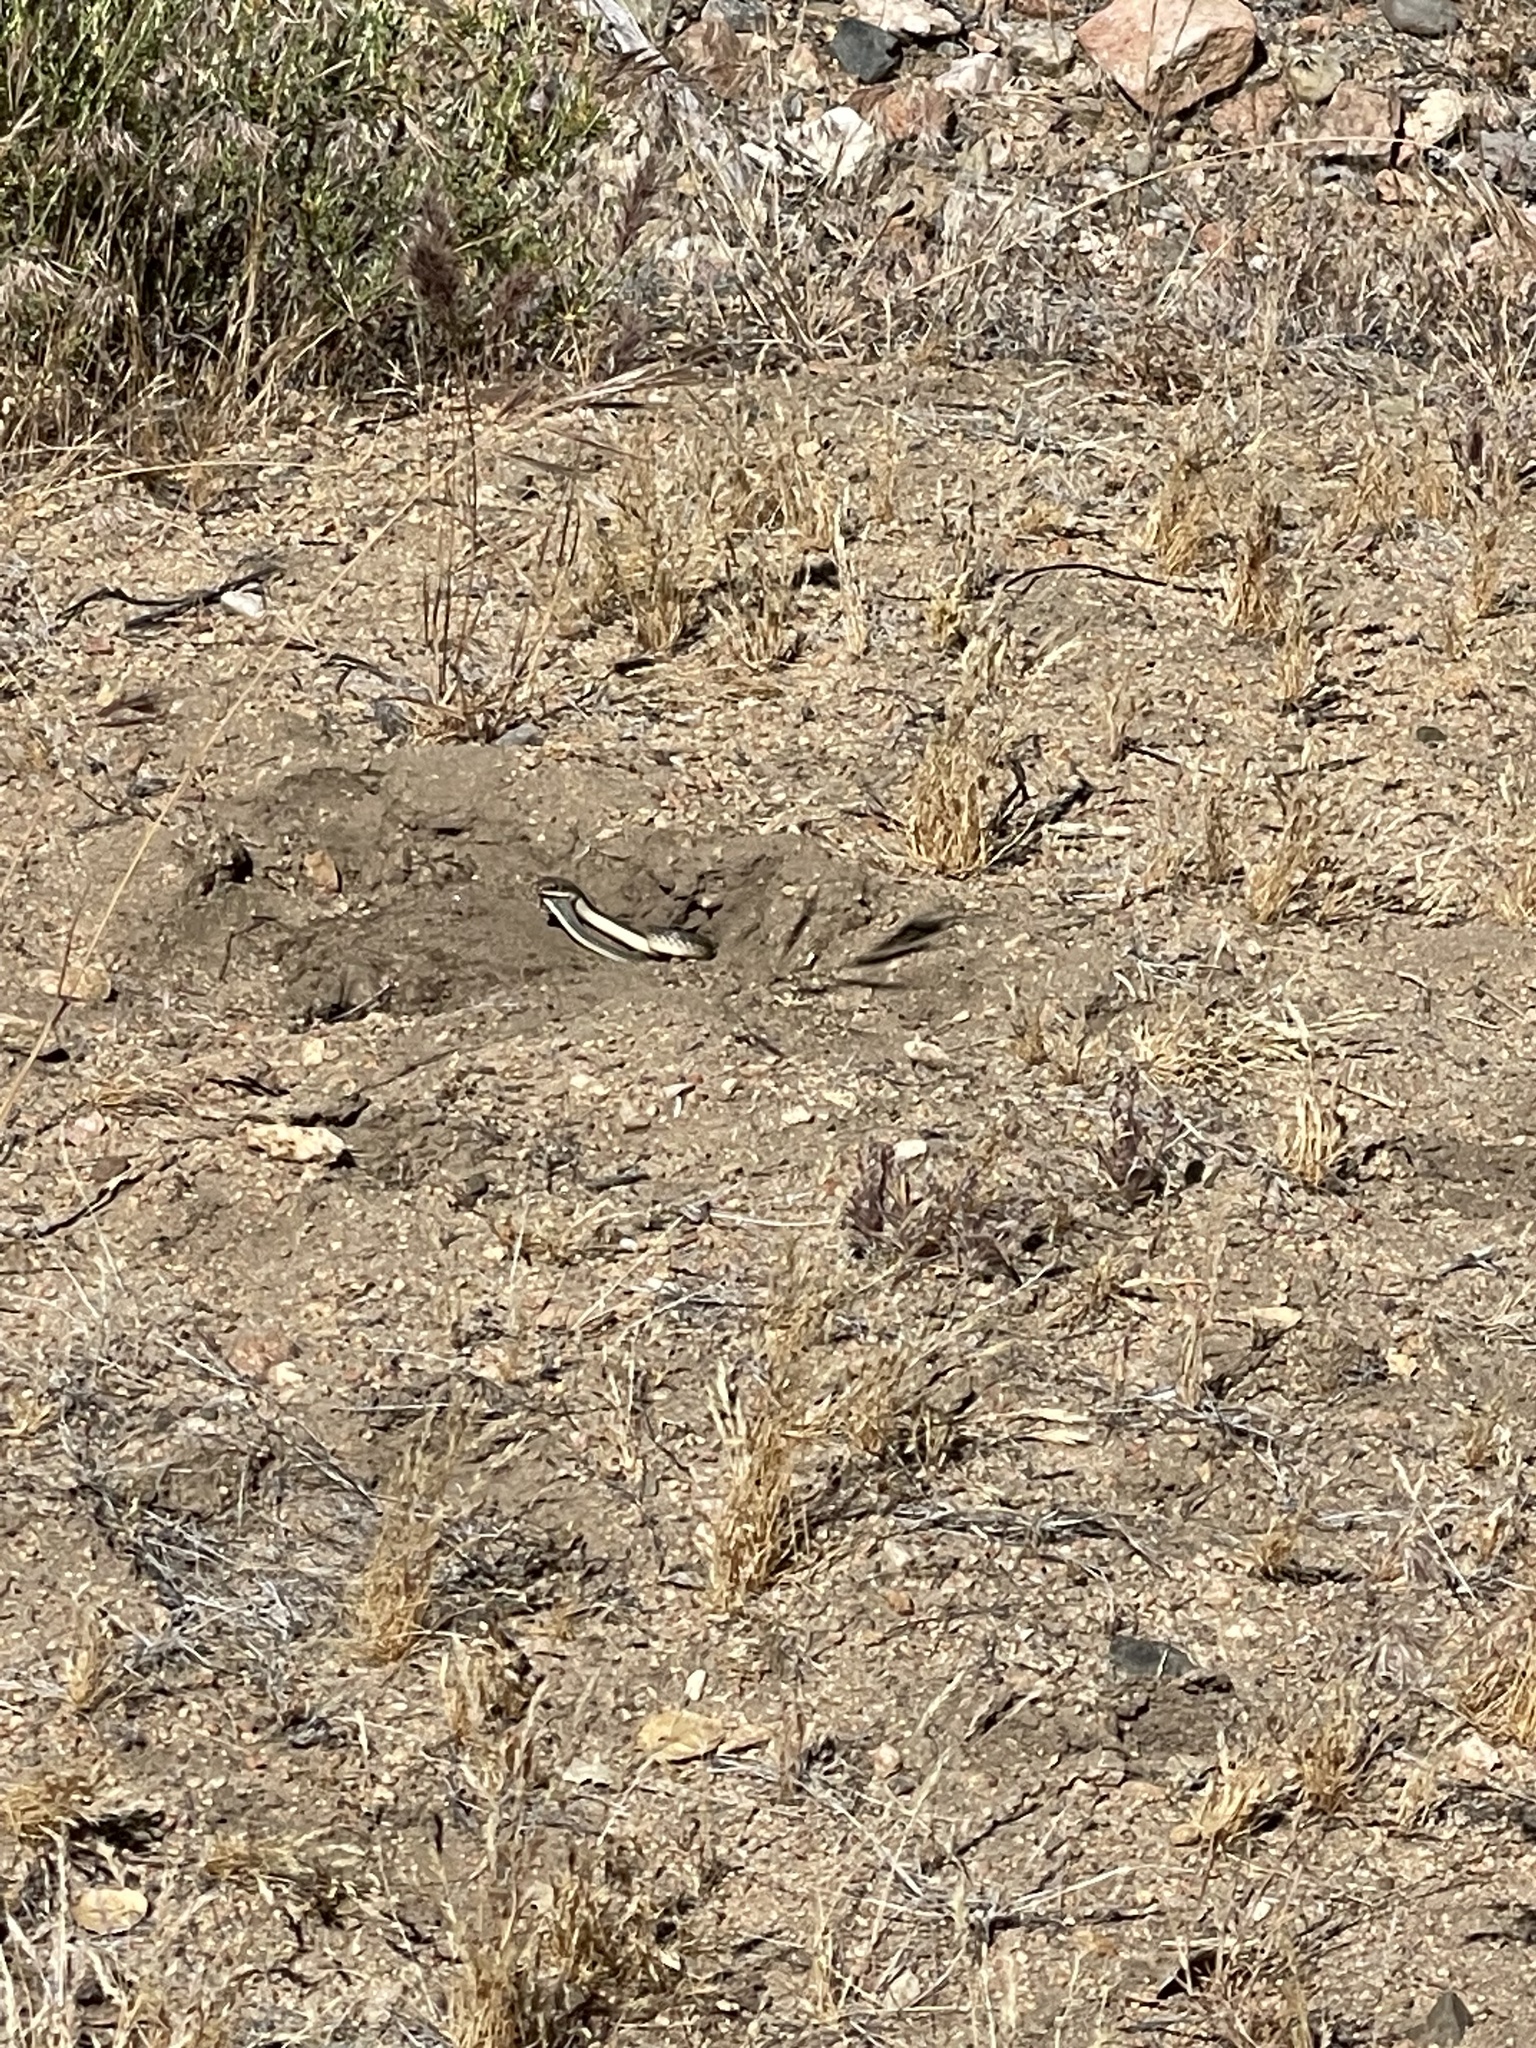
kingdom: Animalia
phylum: Chordata
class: Squamata
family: Colubridae
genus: Salvadora
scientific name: Salvadora hexalepis
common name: Western patchnose snake
